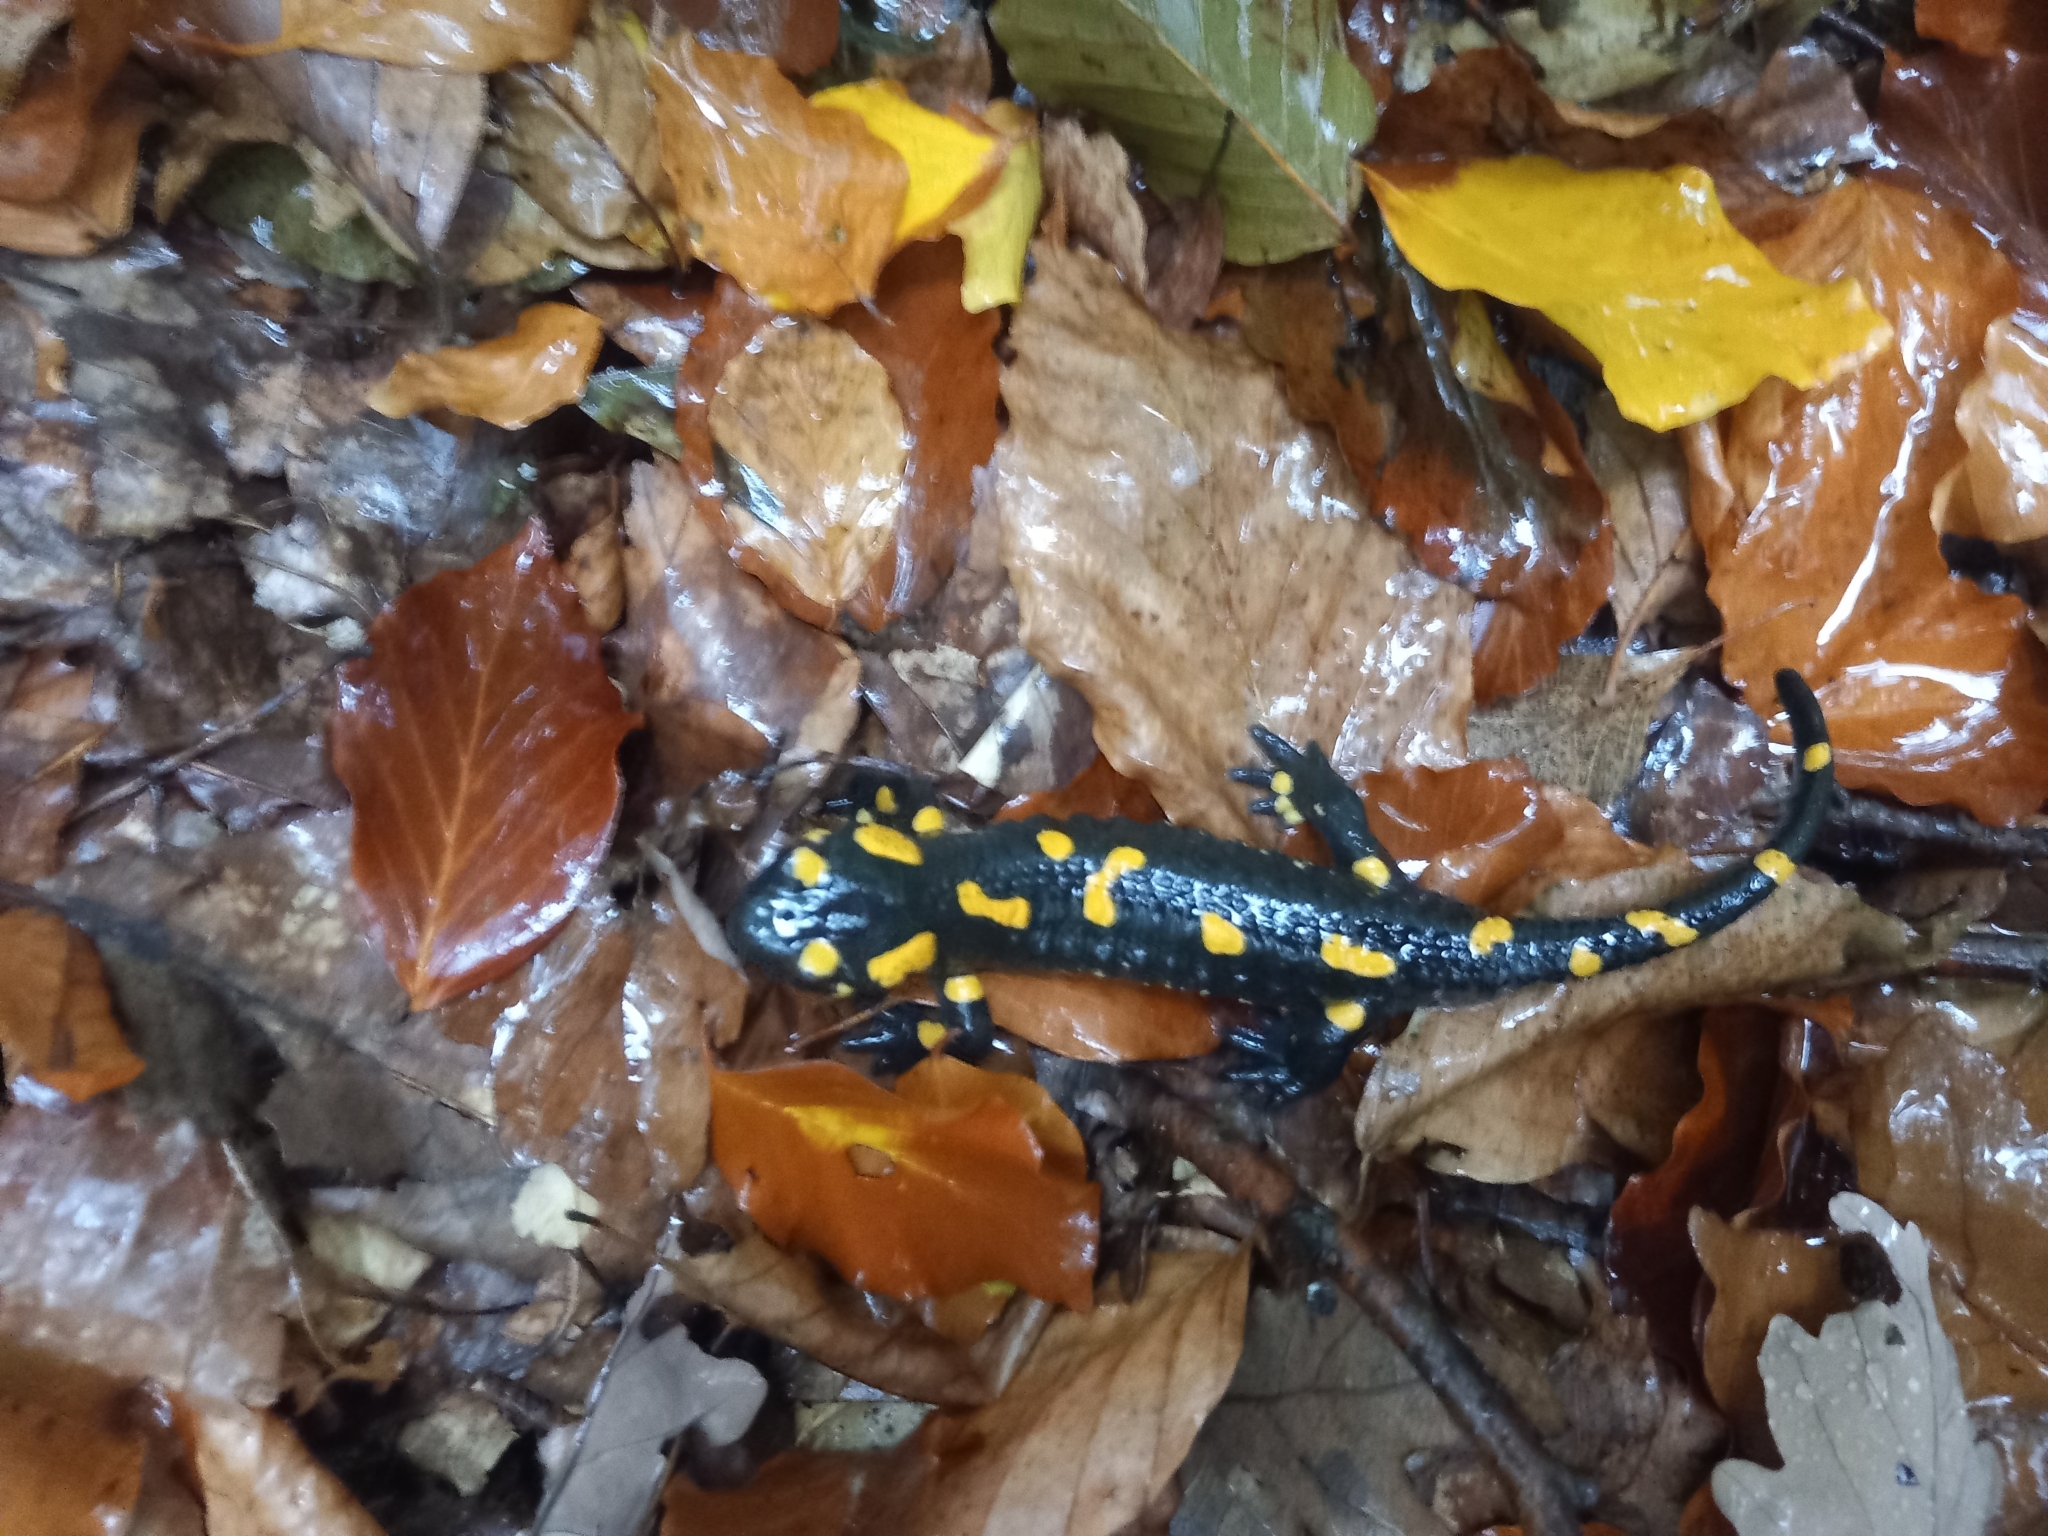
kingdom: Animalia
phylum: Chordata
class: Amphibia
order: Caudata
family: Salamandridae
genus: Salamandra
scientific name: Salamandra salamandra
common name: Fire salamander
